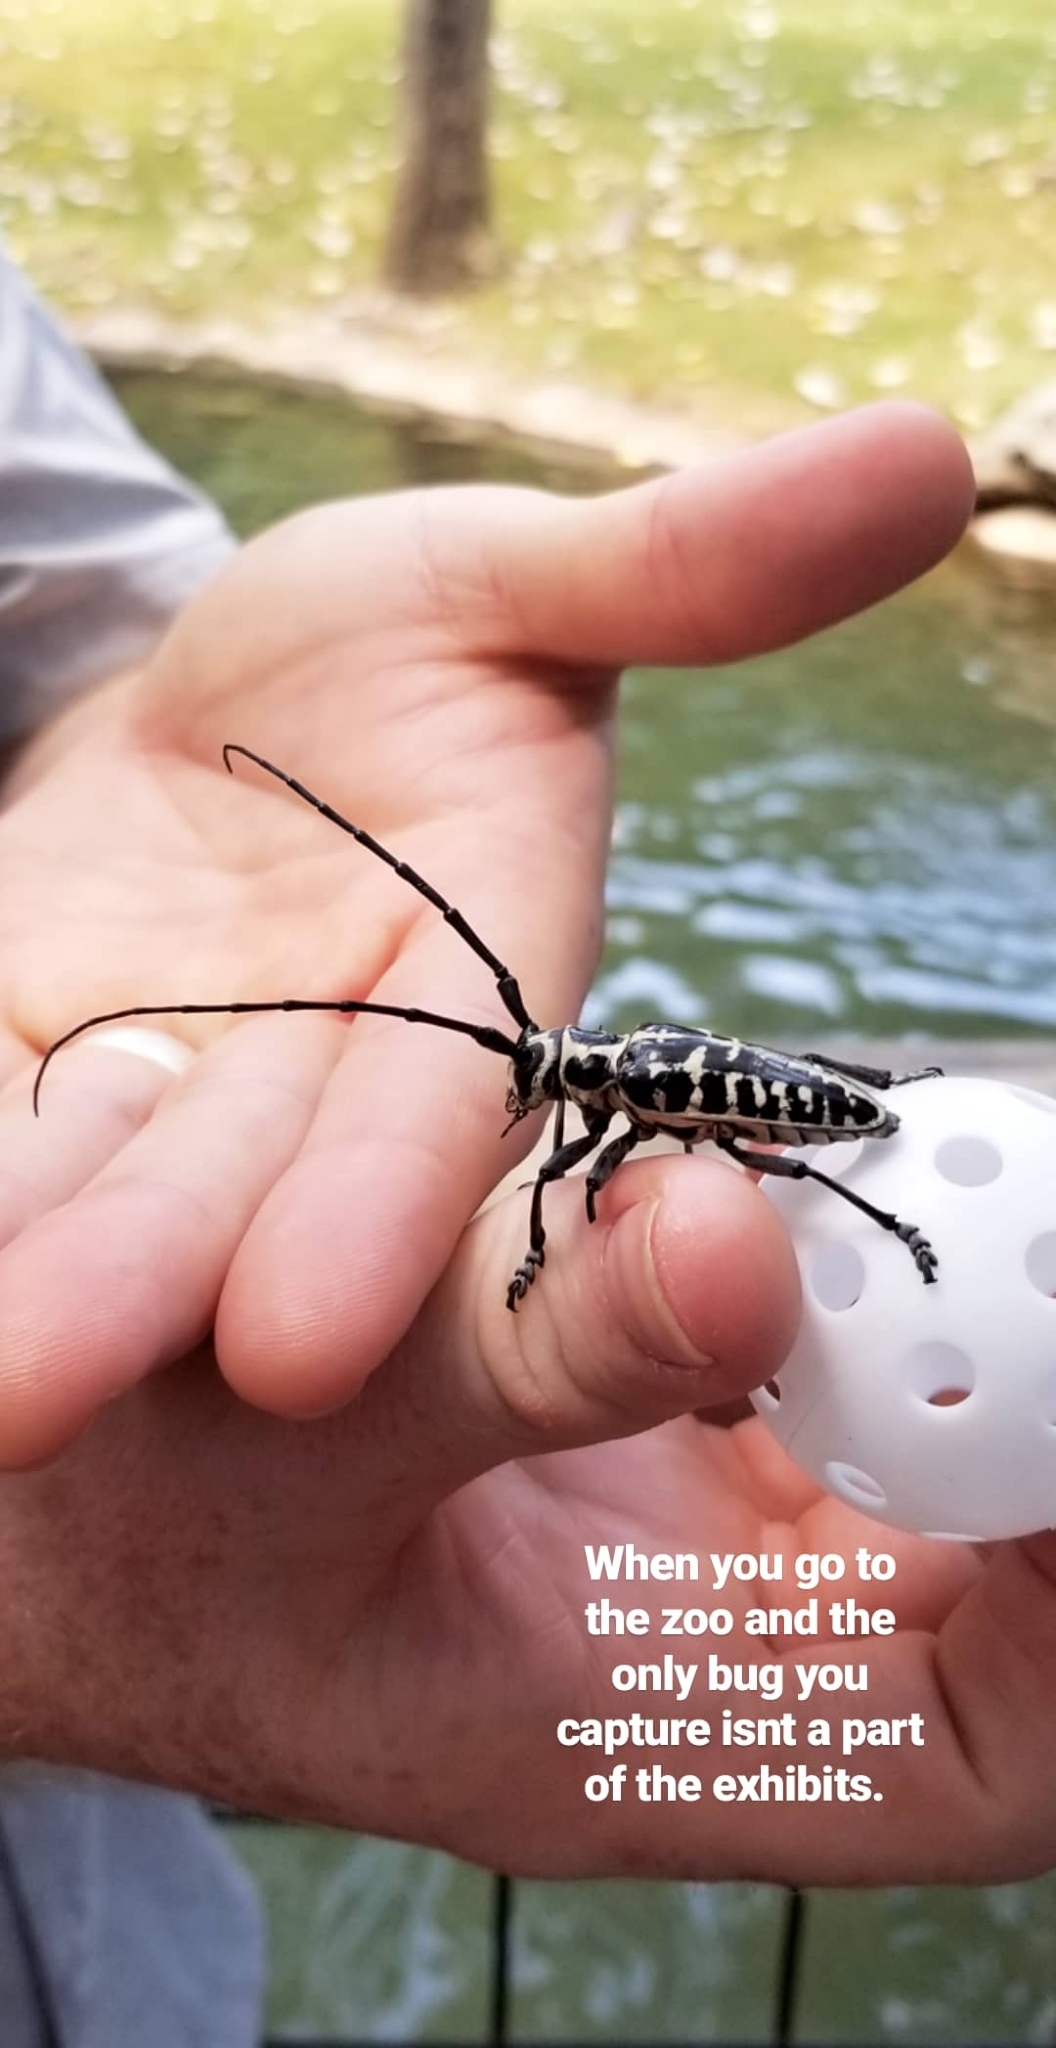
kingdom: Animalia
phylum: Arthropoda
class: Insecta
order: Coleoptera
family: Cerambycidae
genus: Plectrodera
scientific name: Plectrodera scalator
